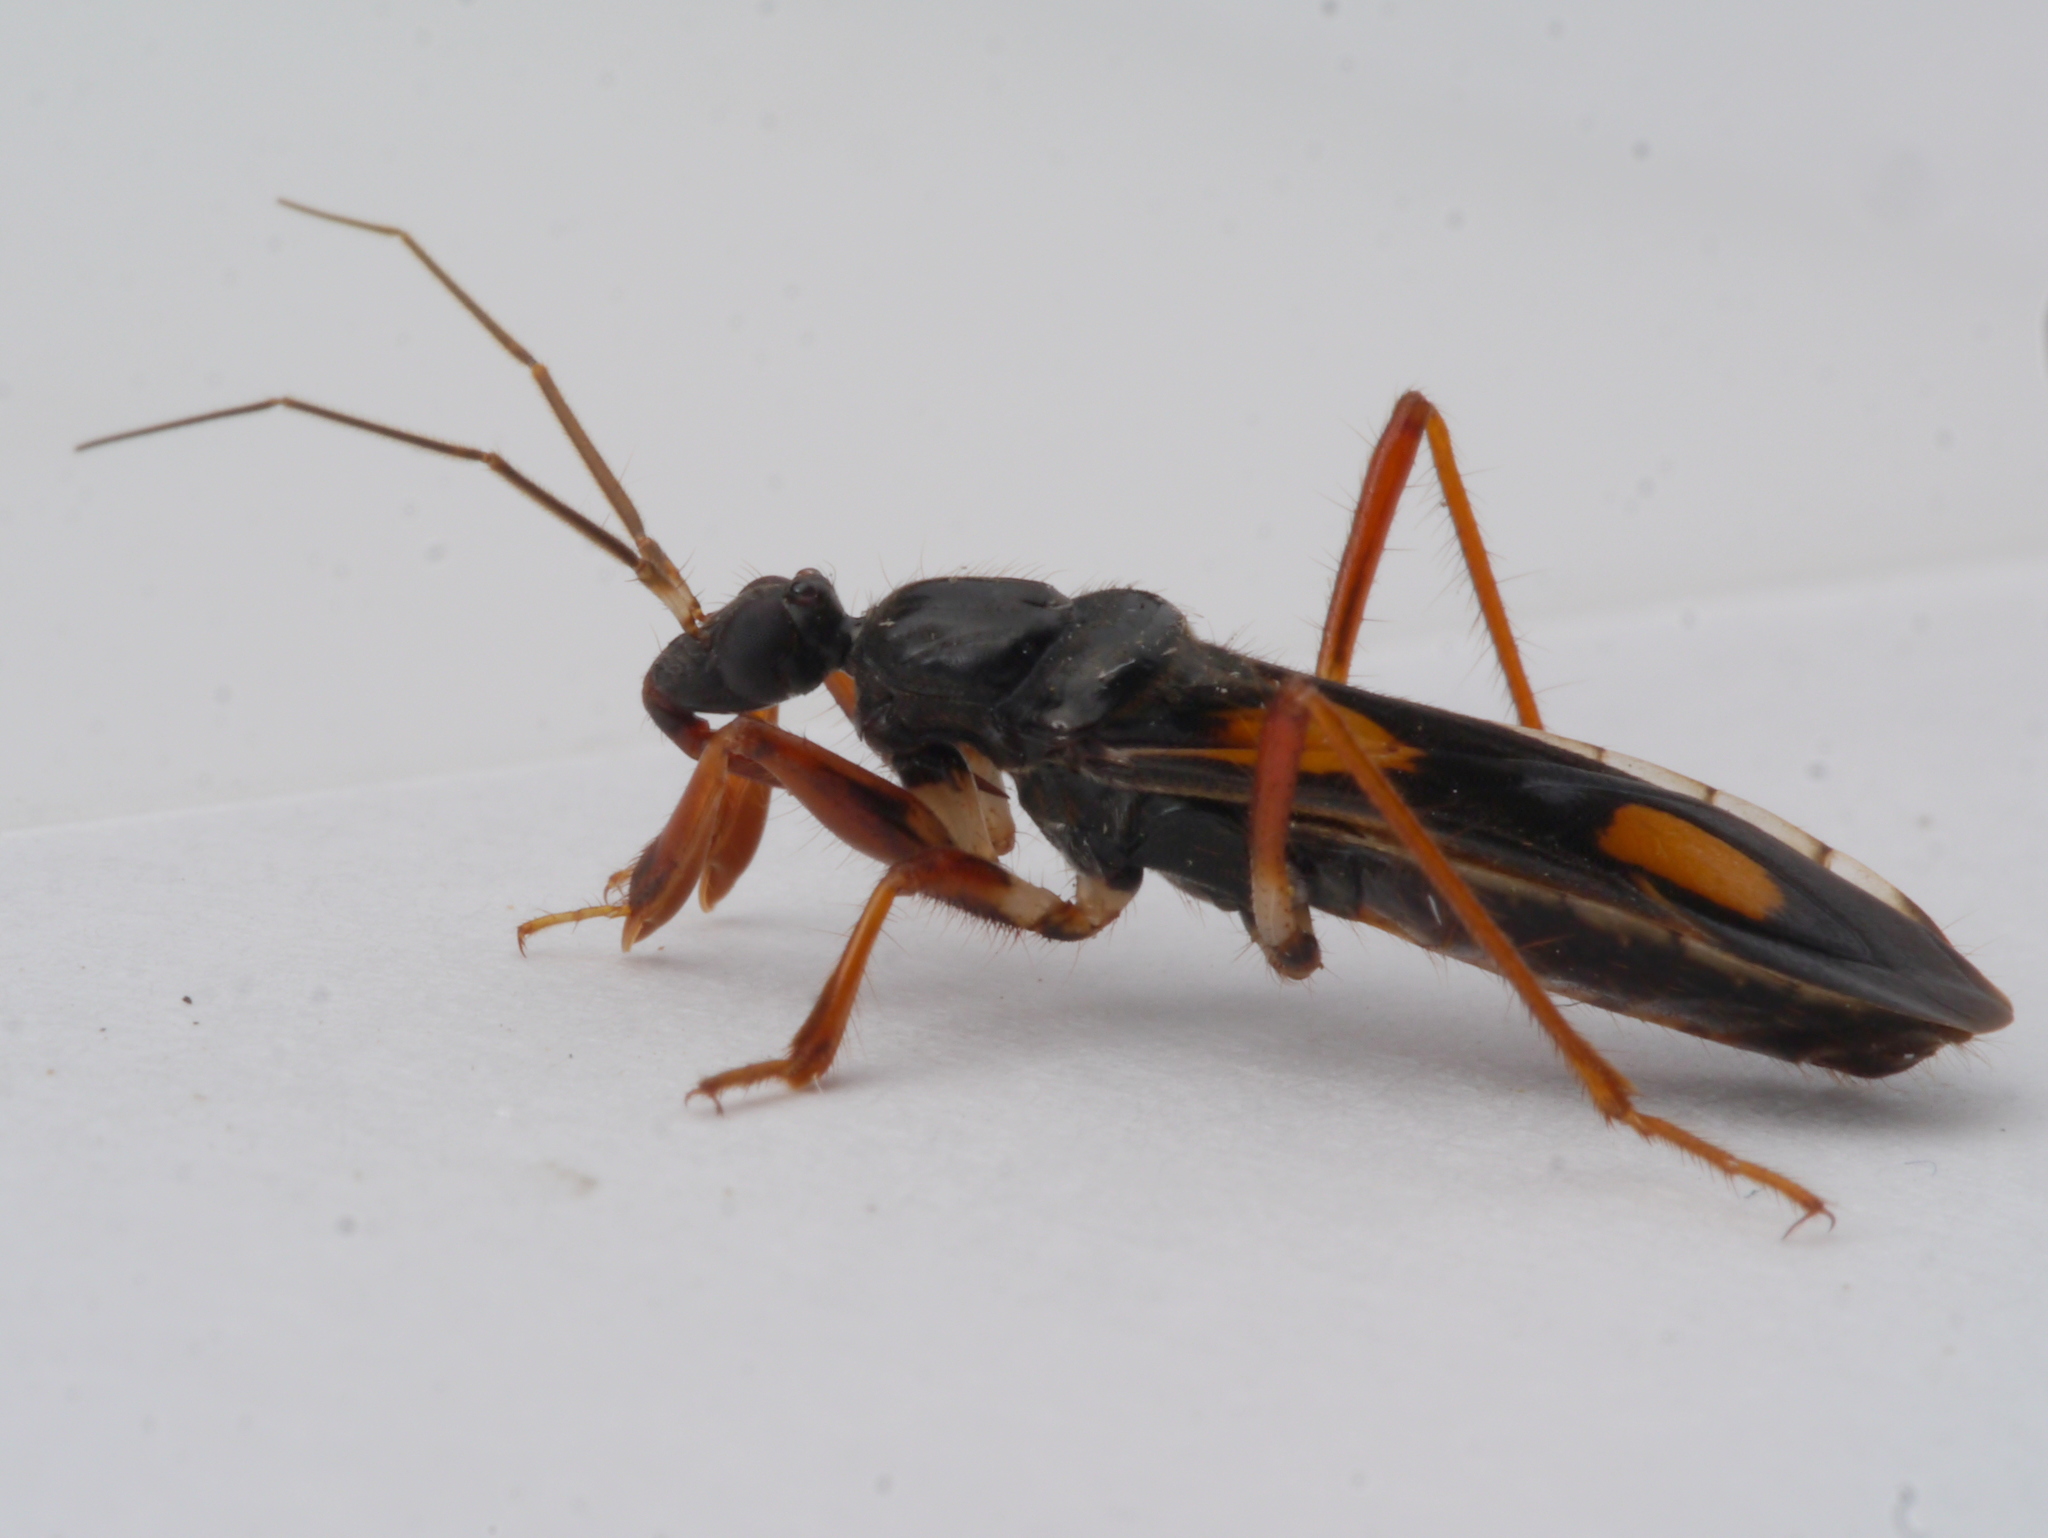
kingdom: Animalia
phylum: Arthropoda
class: Insecta
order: Hemiptera
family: Reduviidae
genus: Rasahus
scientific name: Rasahus hamatus
